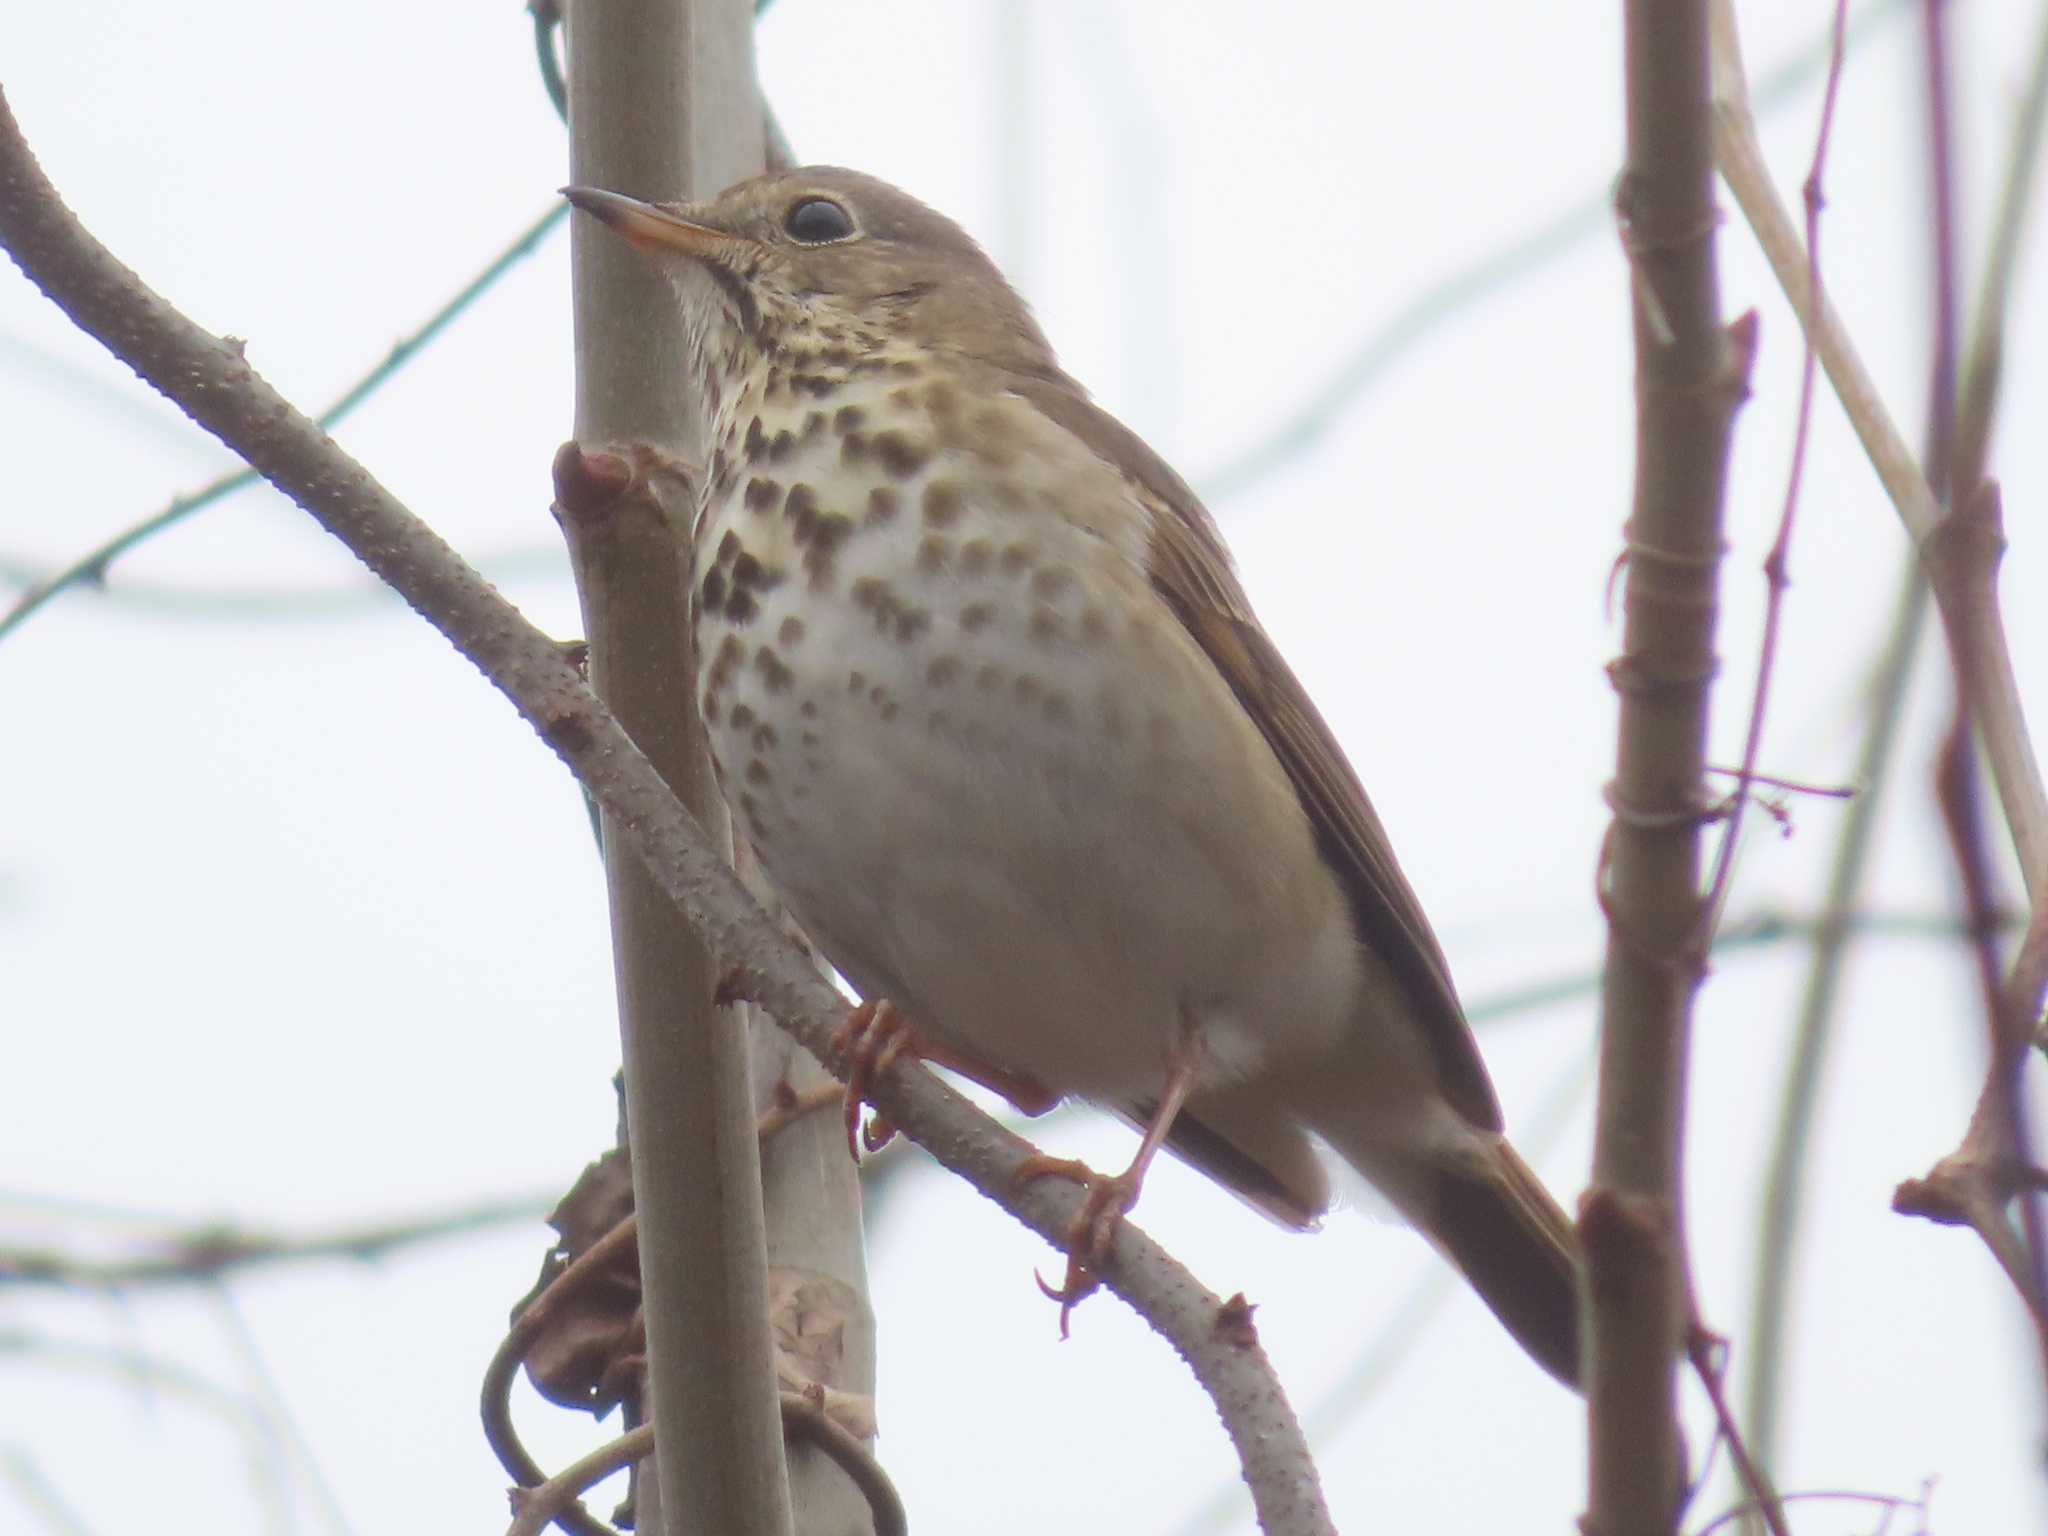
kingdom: Animalia
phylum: Chordata
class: Aves
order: Passeriformes
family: Turdidae
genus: Catharus
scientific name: Catharus guttatus
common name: Hermit thrush
